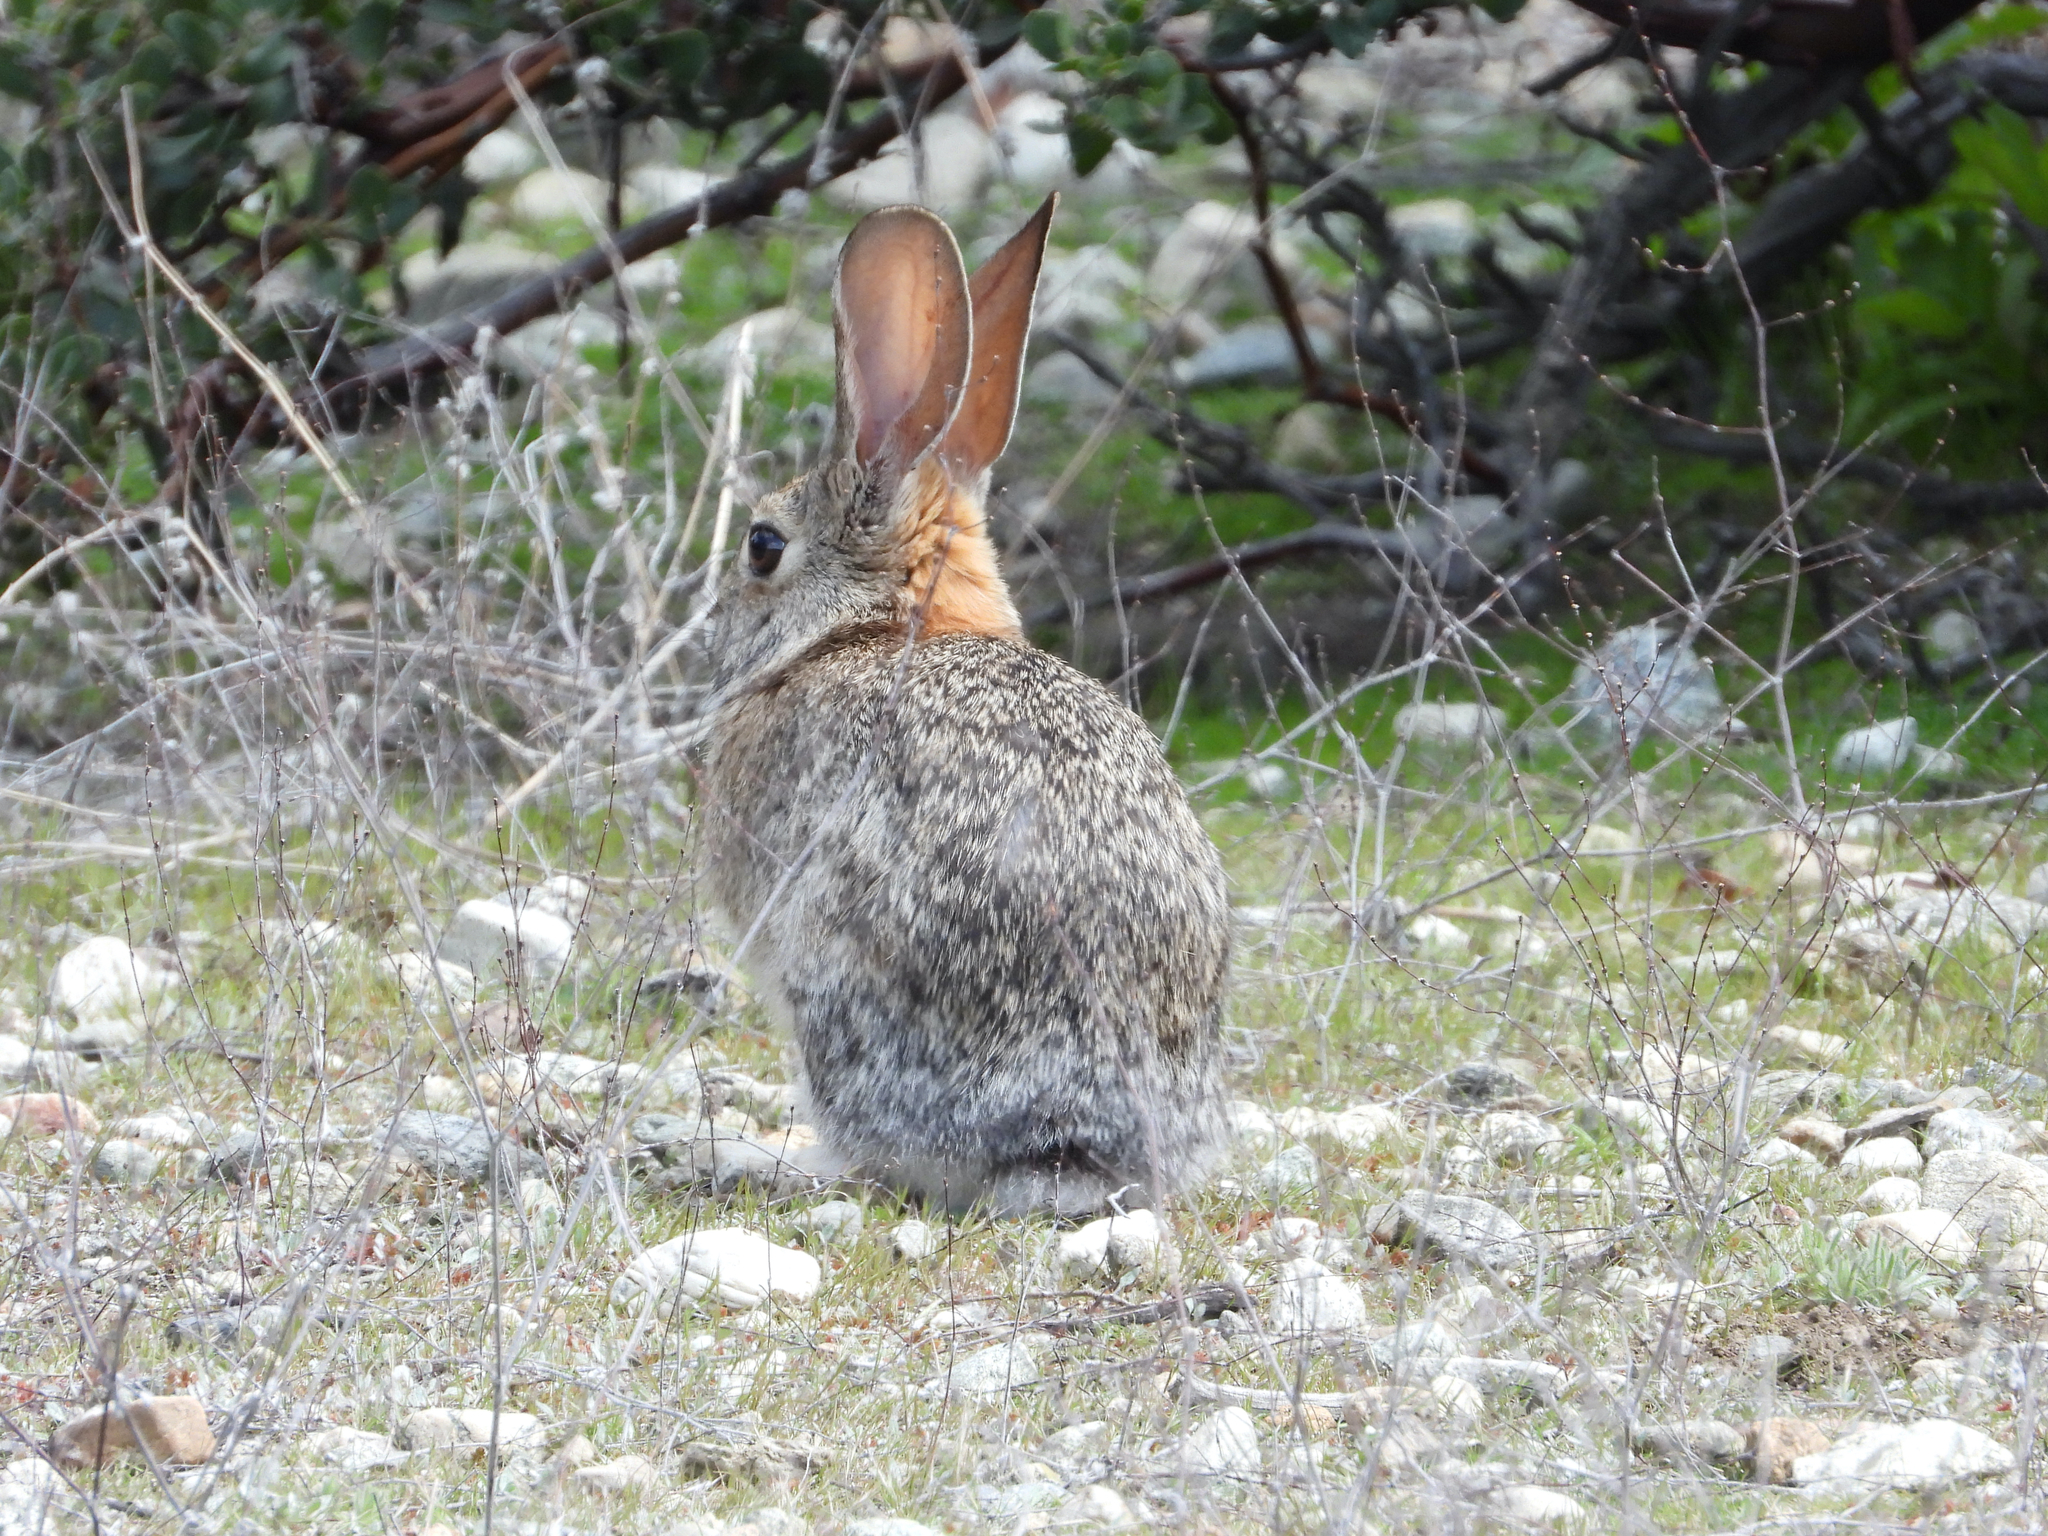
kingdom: Animalia
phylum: Chordata
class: Mammalia
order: Lagomorpha
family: Leporidae
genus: Sylvilagus
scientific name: Sylvilagus audubonii
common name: Desert cottontail
